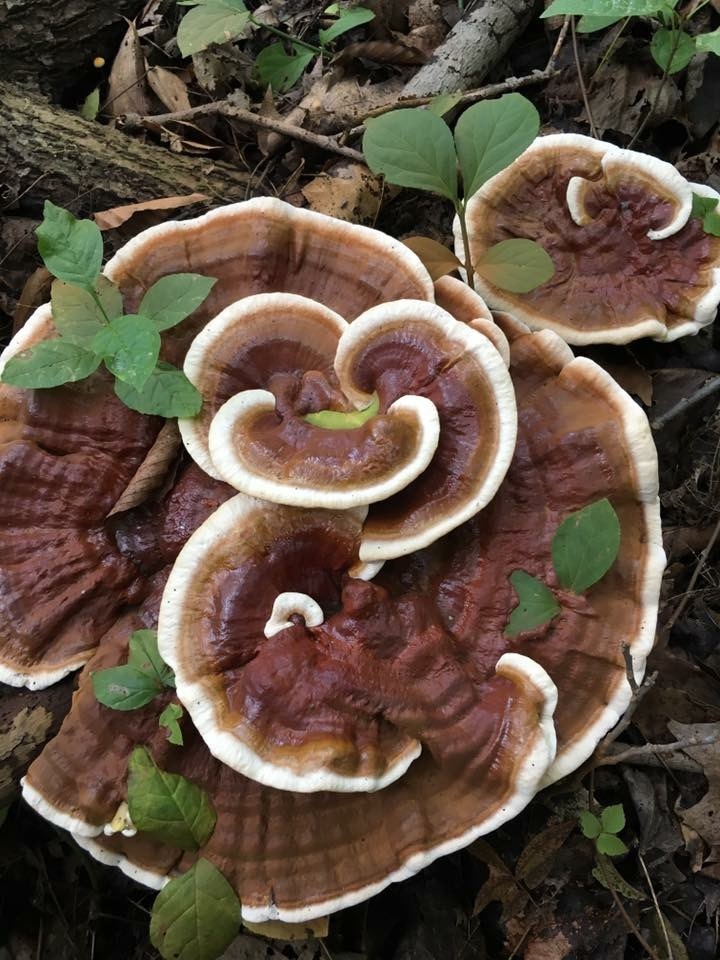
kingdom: Fungi
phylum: Basidiomycota
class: Agaricomycetes
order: Polyporales
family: Polyporaceae
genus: Ganoderma
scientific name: Ganoderma resinaceum
